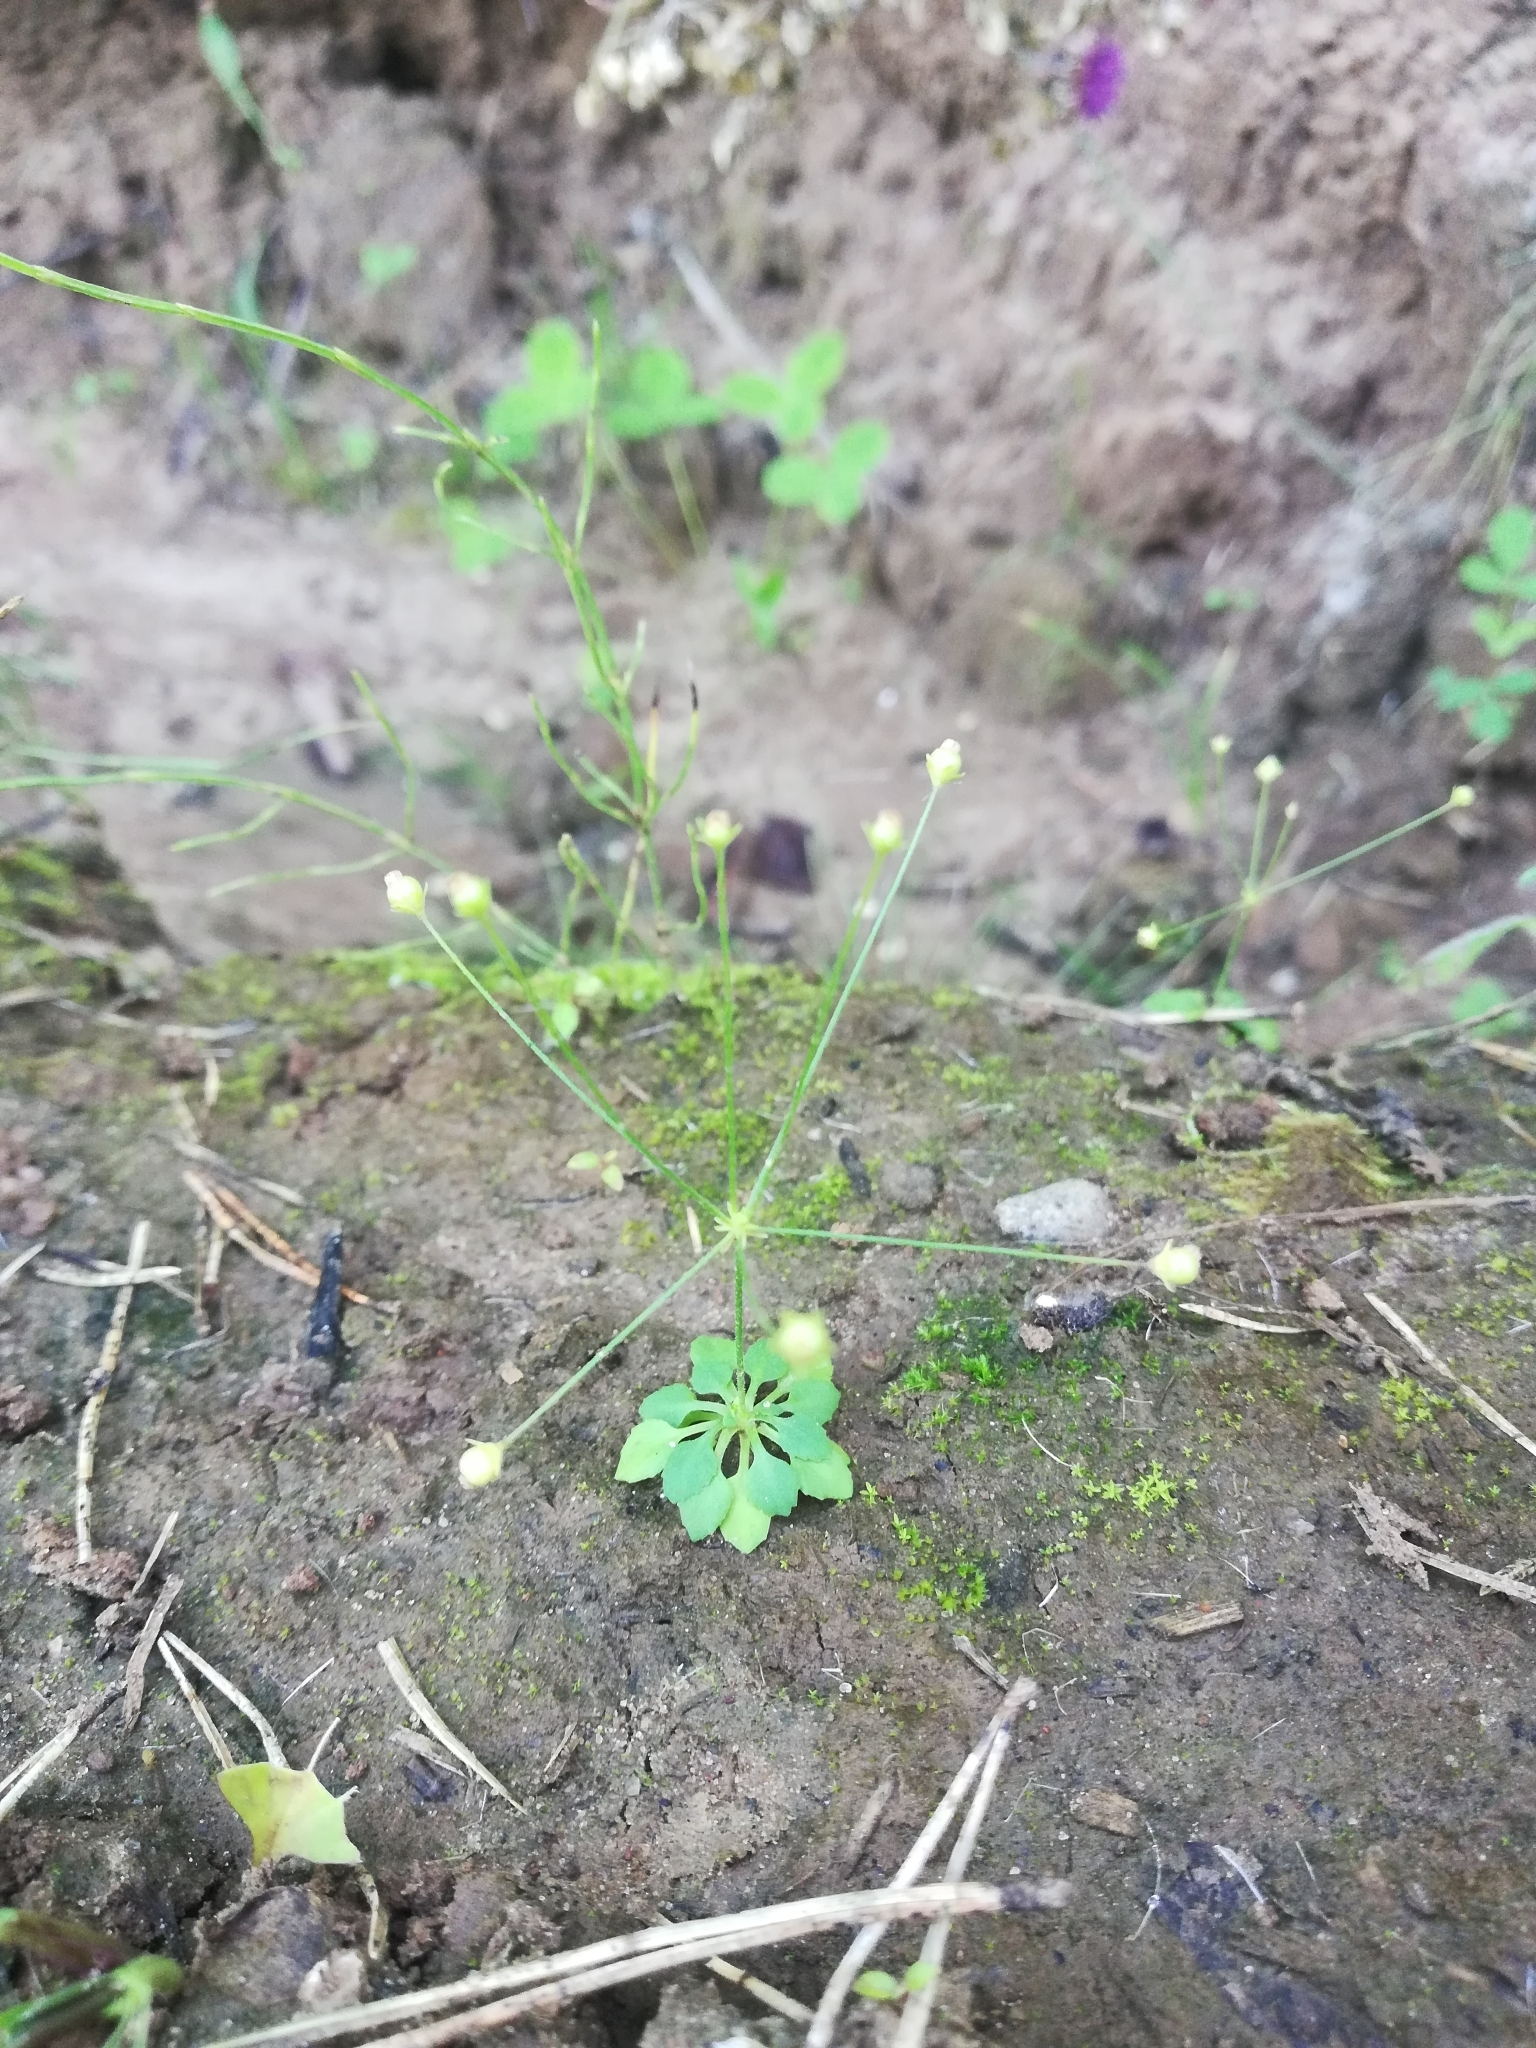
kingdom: Plantae
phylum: Tracheophyta
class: Magnoliopsida
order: Ericales
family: Primulaceae
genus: Androsace
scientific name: Androsace filiformis
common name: Filiform rock jasmine
